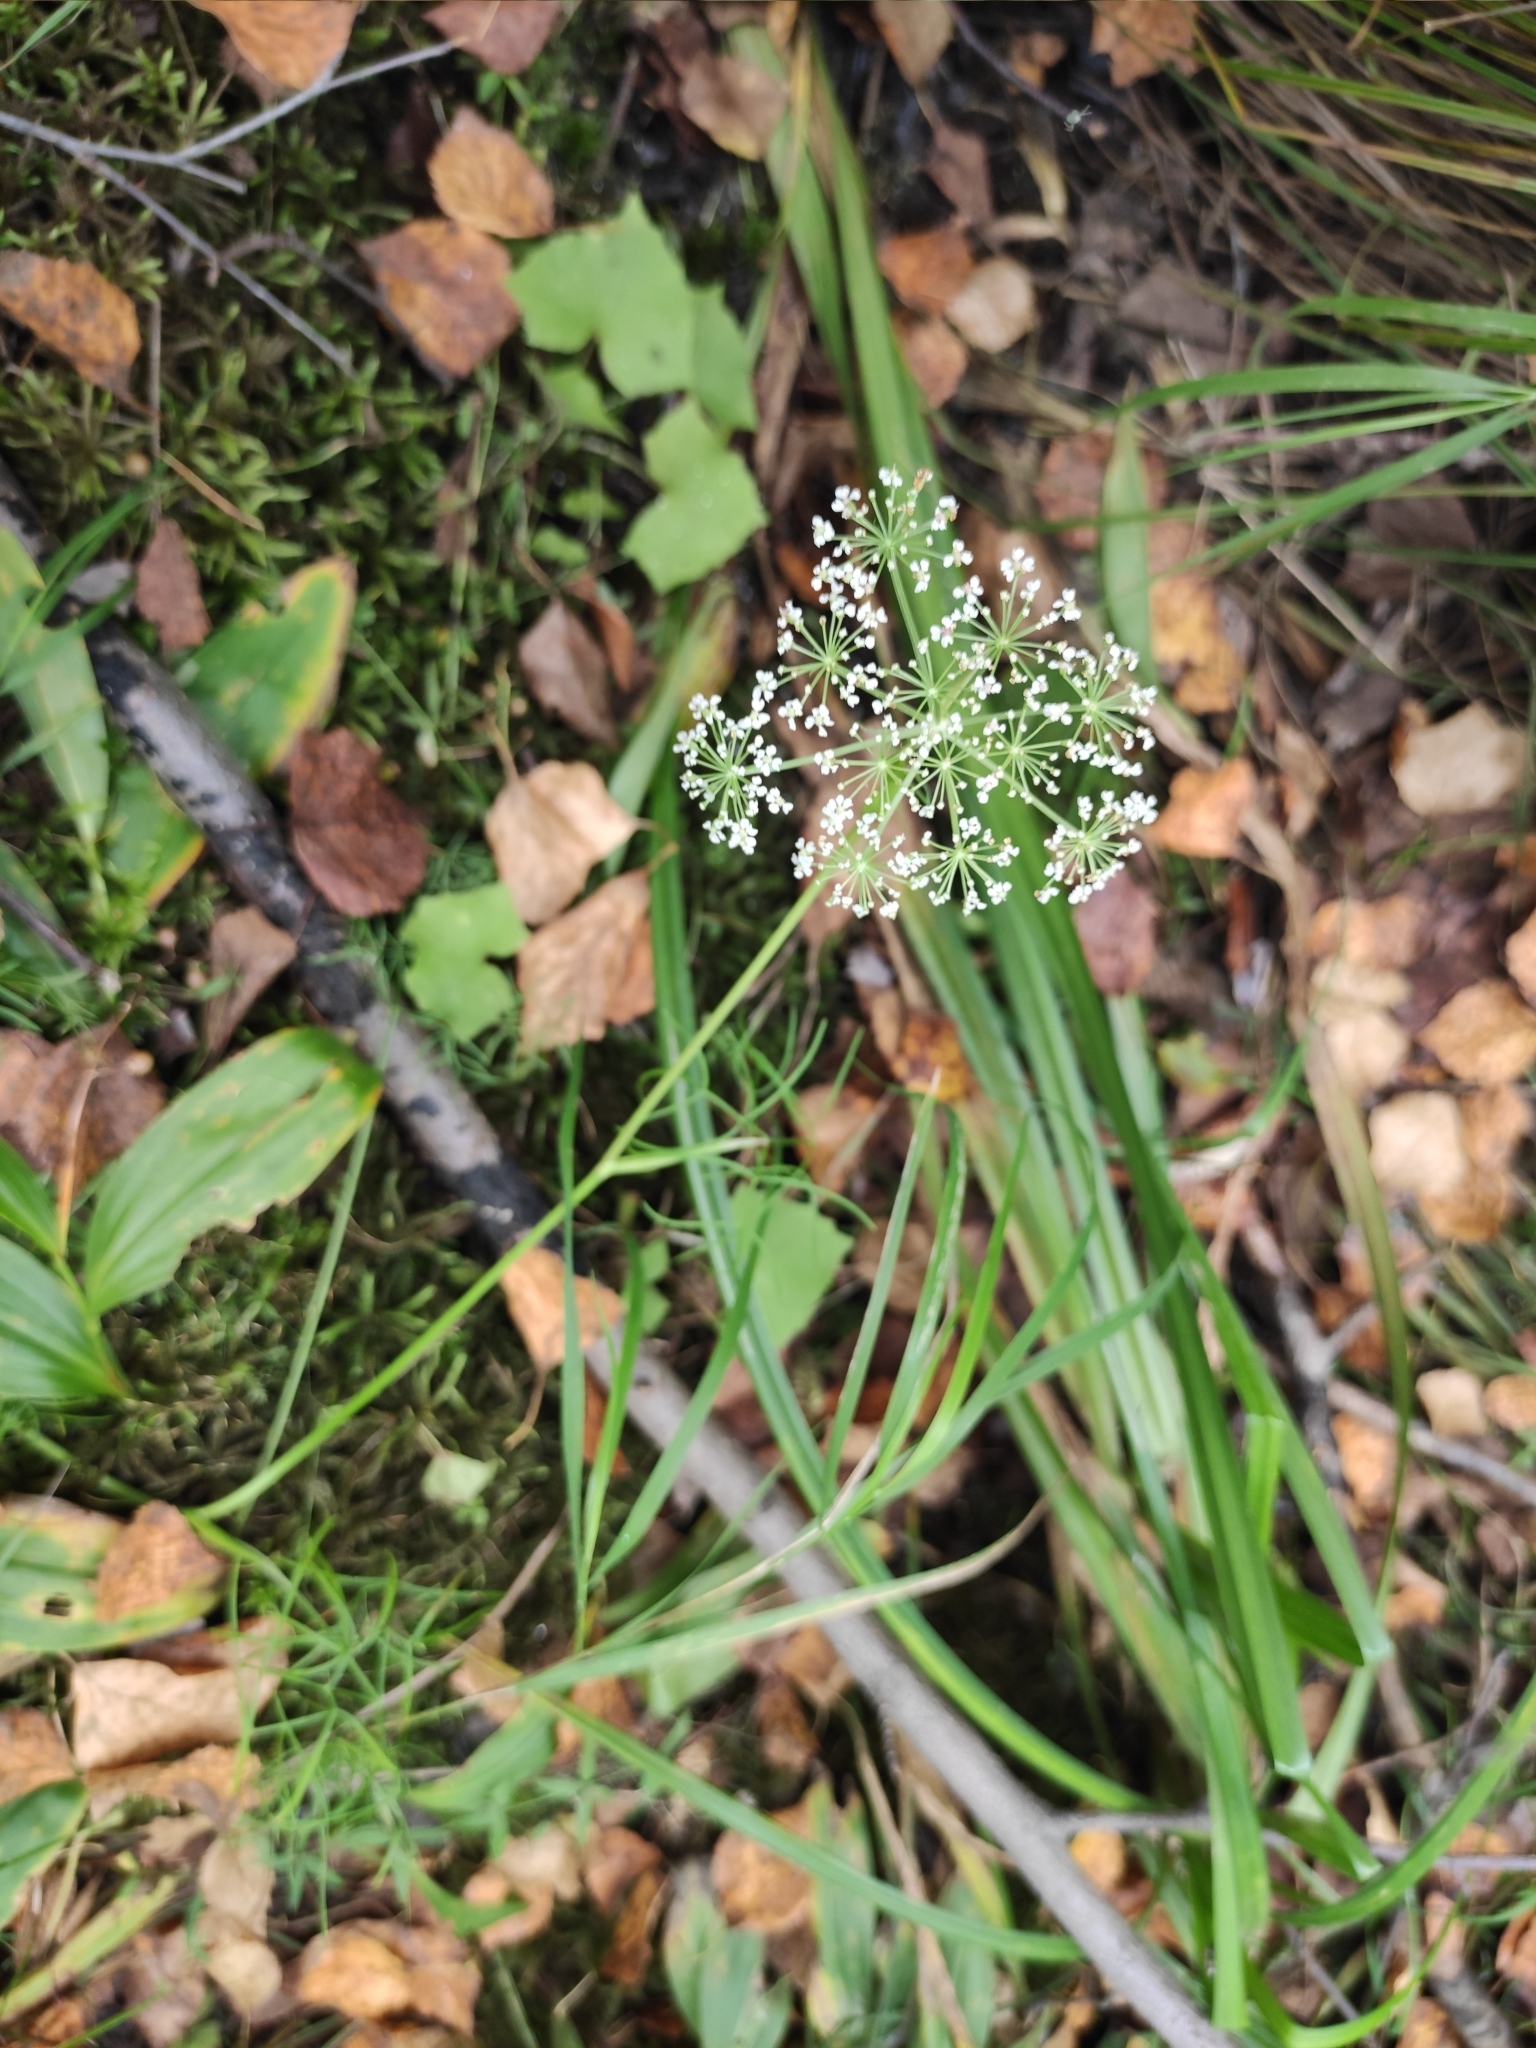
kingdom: Plantae
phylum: Tracheophyta
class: Magnoliopsida
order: Apiales
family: Apiaceae
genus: Ostericum
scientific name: Ostericum tenuifolium
